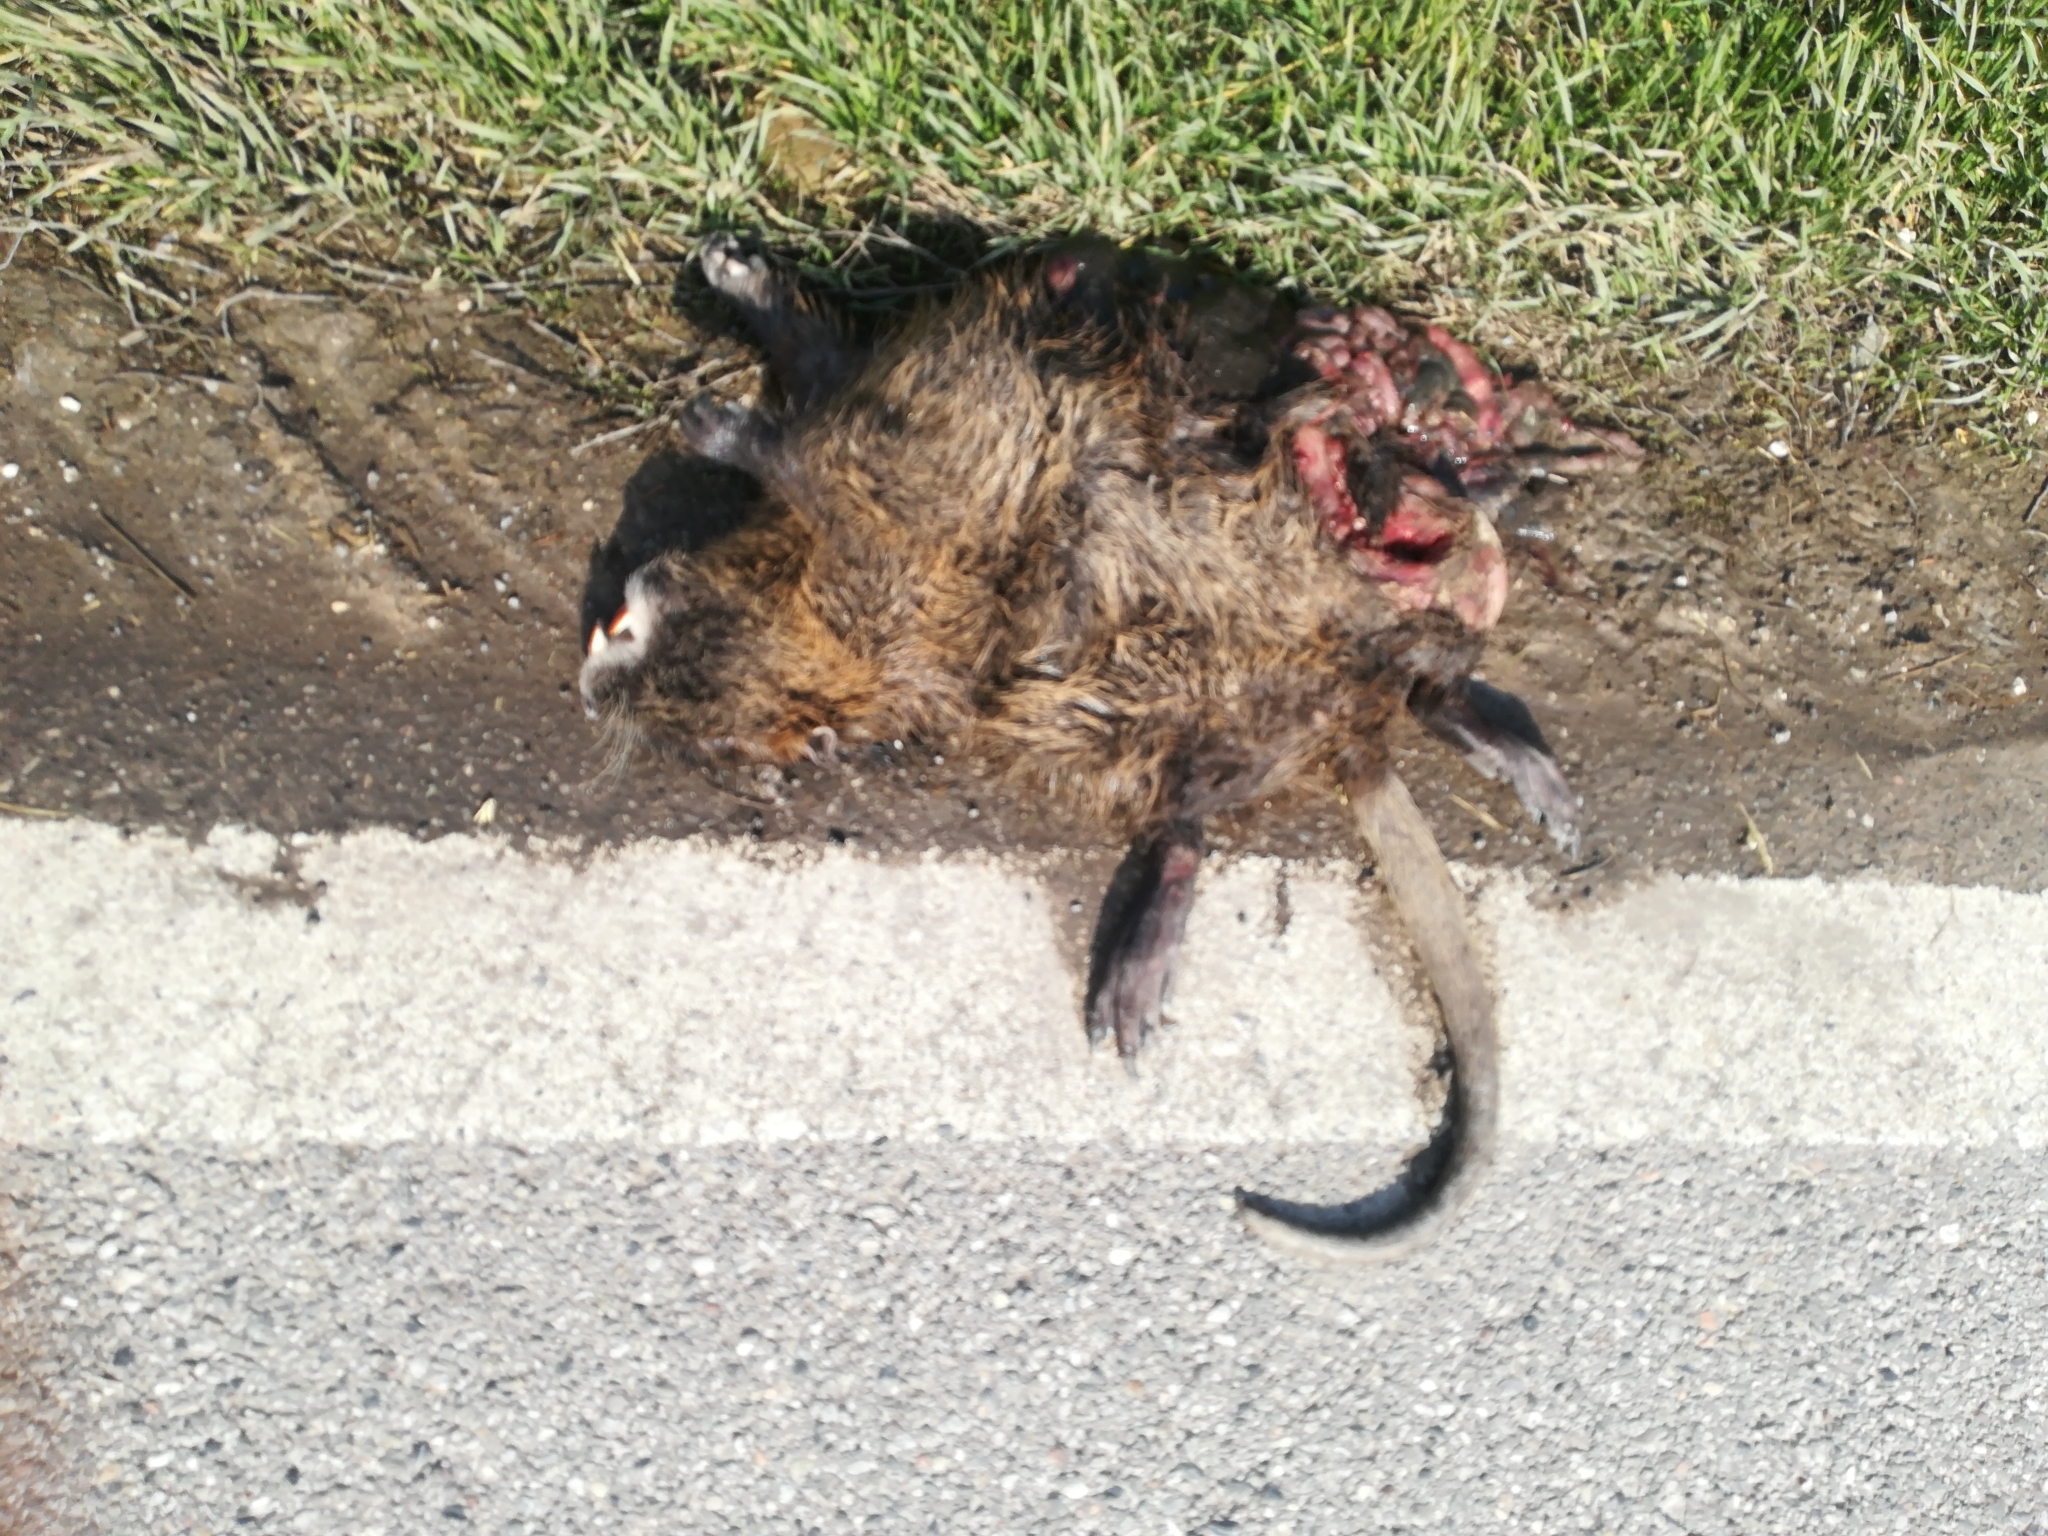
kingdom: Animalia
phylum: Chordata
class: Mammalia
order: Rodentia
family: Myocastoridae
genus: Myocastor
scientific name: Myocastor coypus
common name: Coypu
